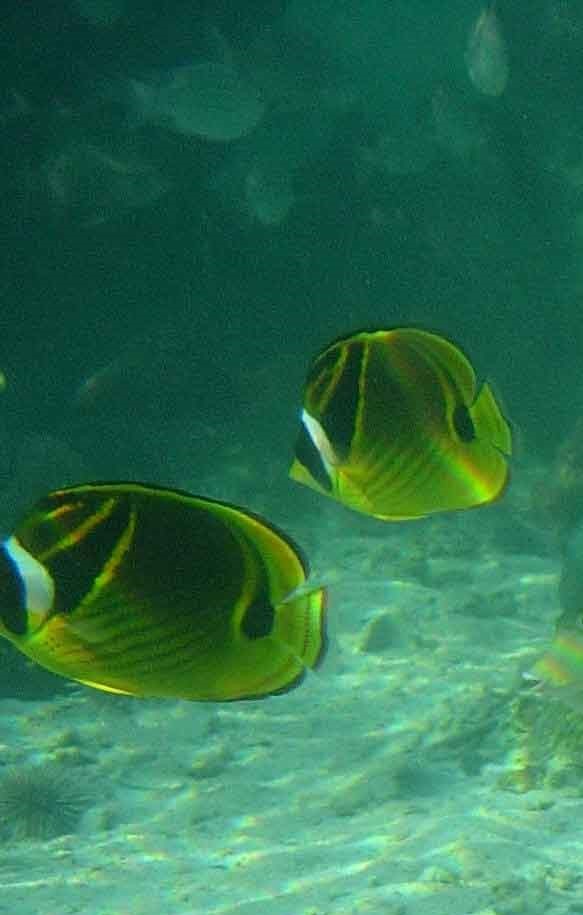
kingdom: Animalia
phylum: Chordata
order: Perciformes
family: Chaetodontidae
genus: Chaetodon
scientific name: Chaetodon lunula
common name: Raccoon butterflyfish
